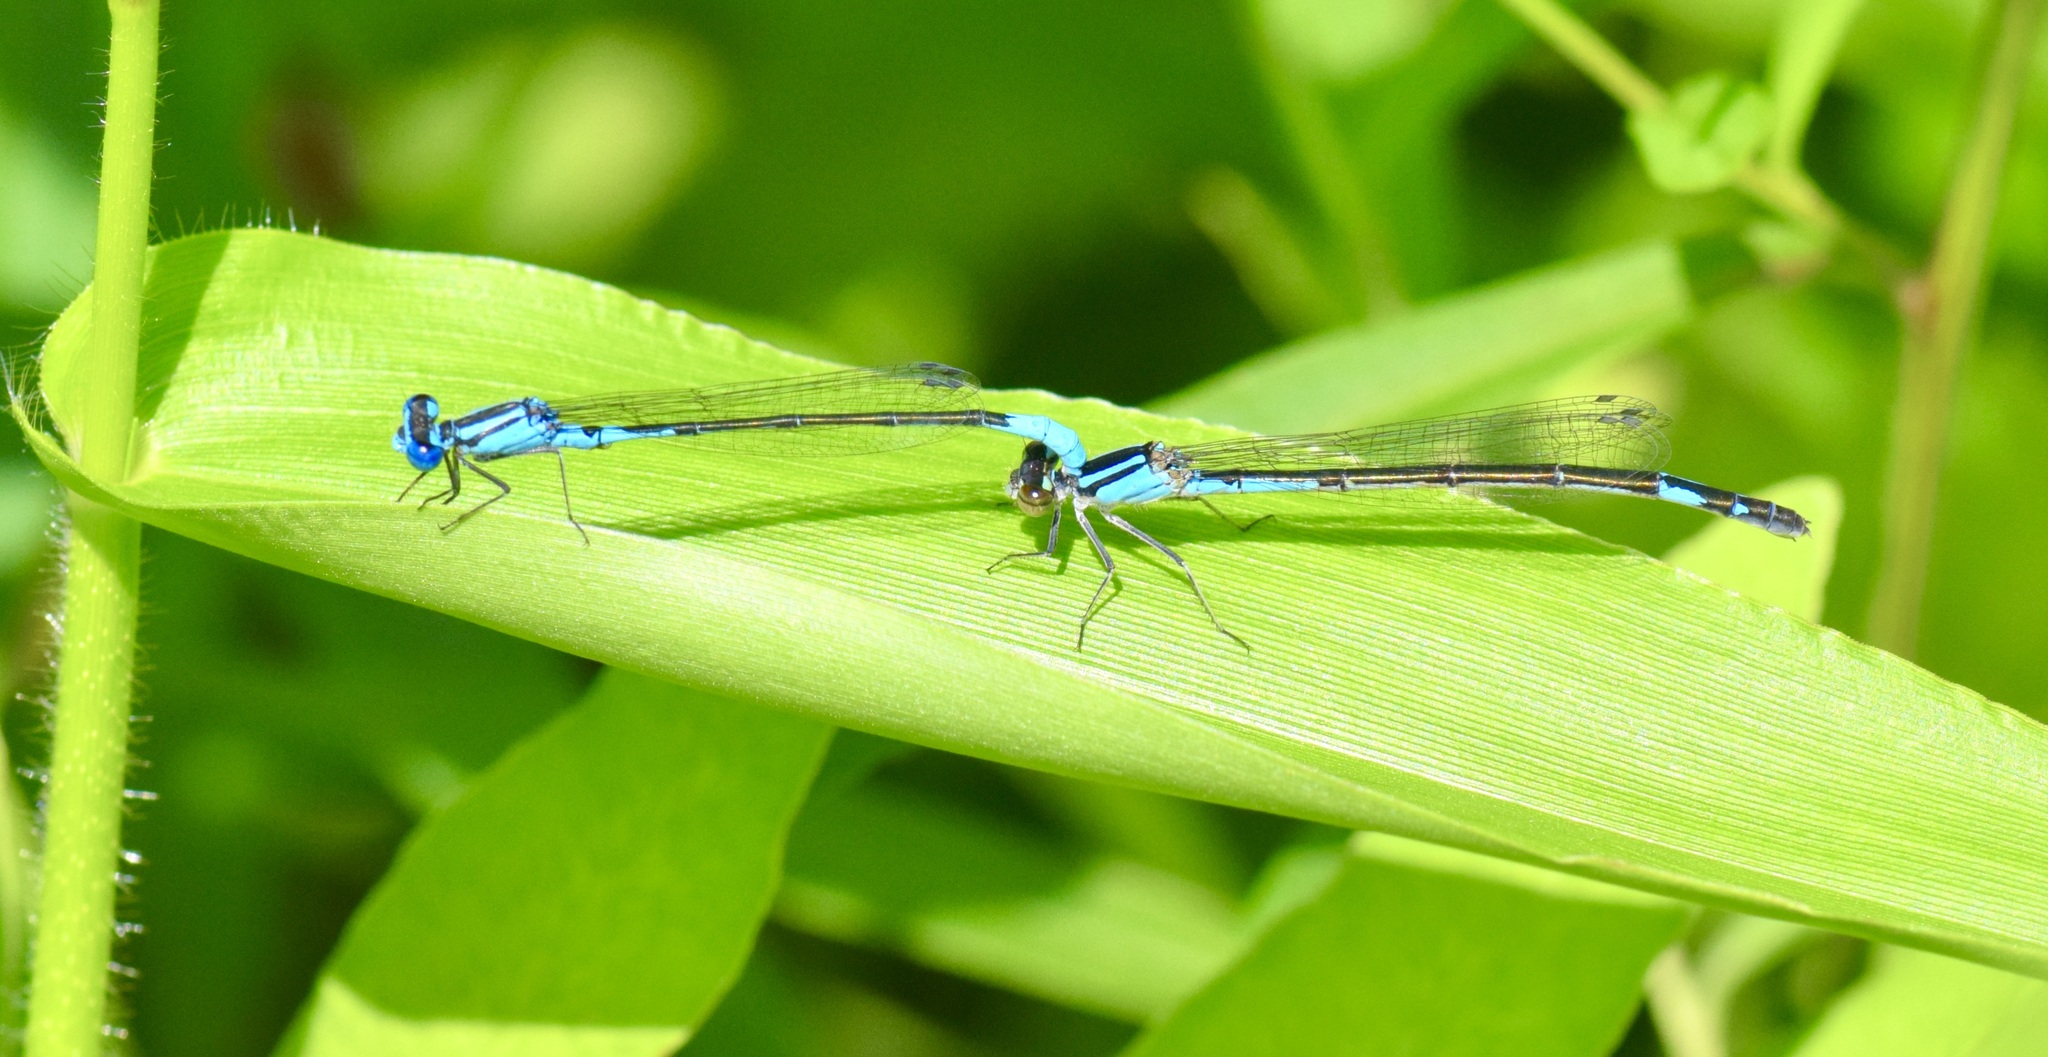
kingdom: Animalia
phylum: Arthropoda
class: Insecta
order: Odonata
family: Coenagrionidae
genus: Enallagma
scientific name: Enallagma aspersum
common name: Azure bluet
